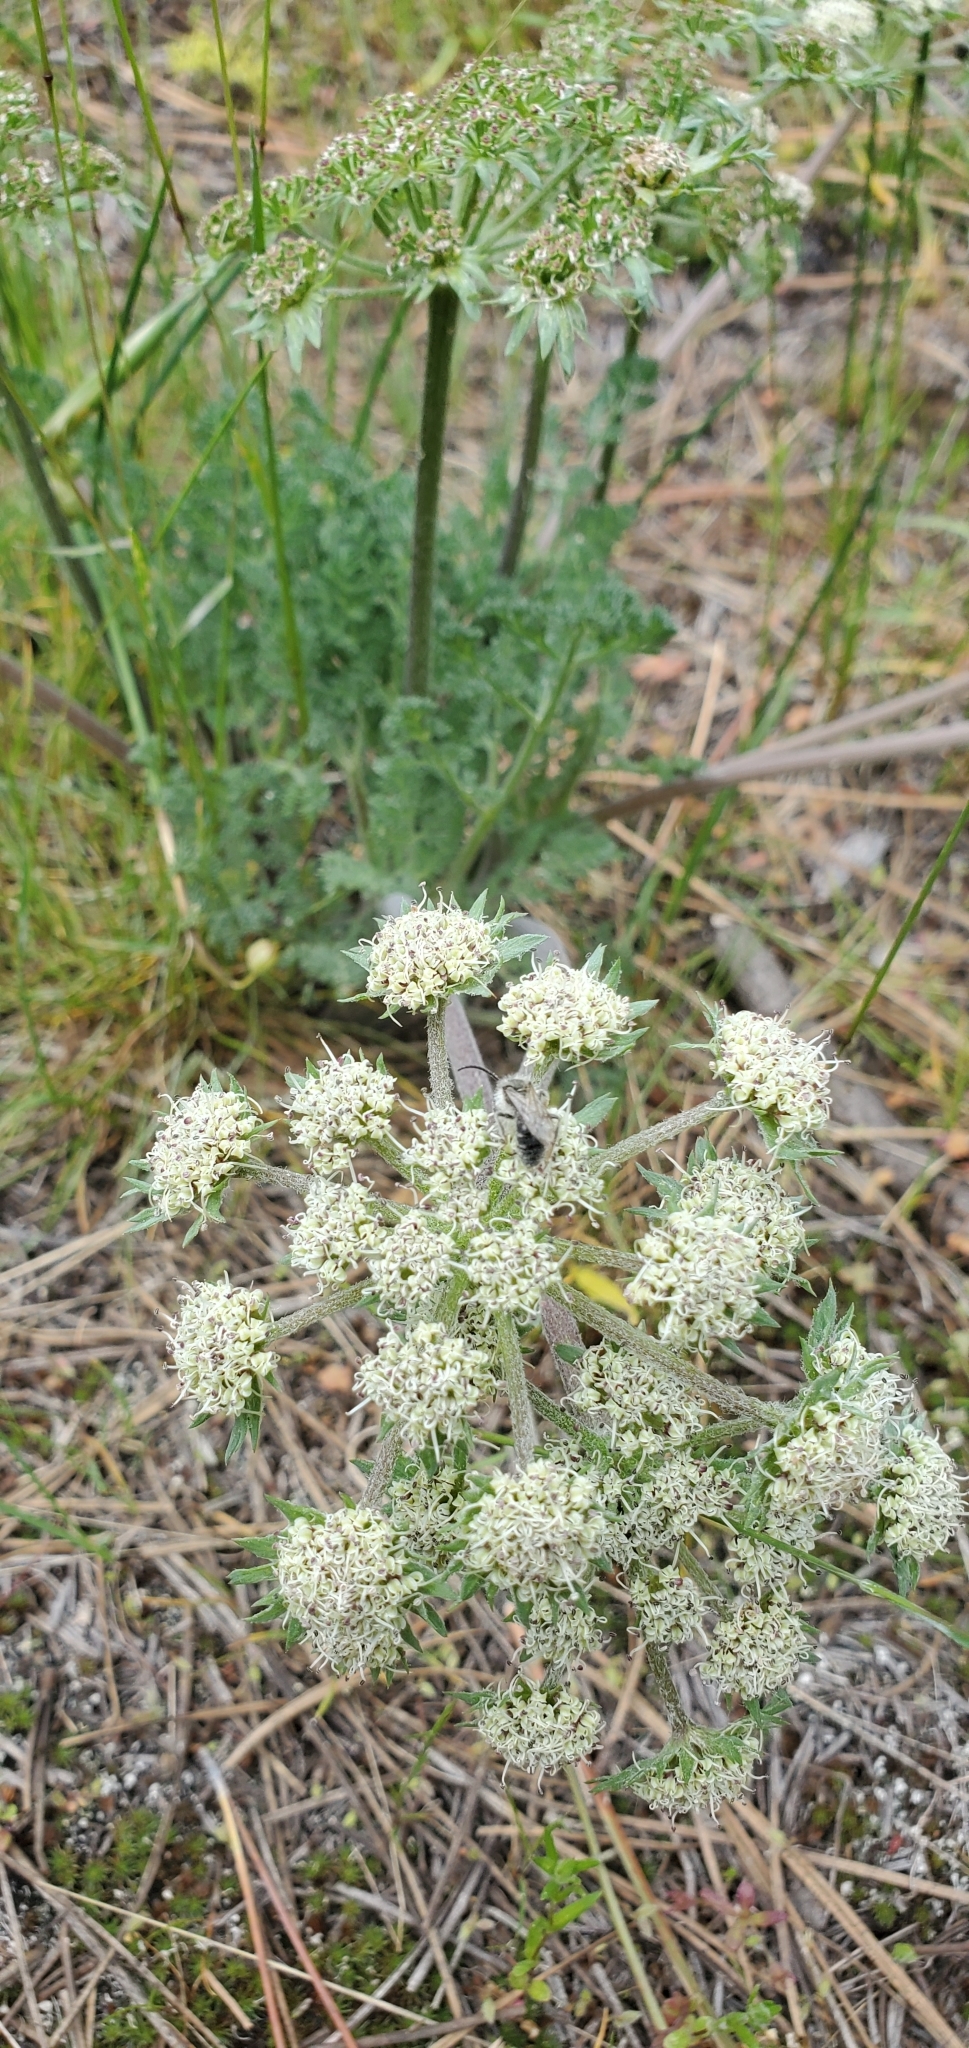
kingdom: Plantae
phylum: Tracheophyta
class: Magnoliopsida
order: Apiales
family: Apiaceae
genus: Lomatium
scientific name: Lomatium macrocarpum
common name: Big-seed biscuitroot
